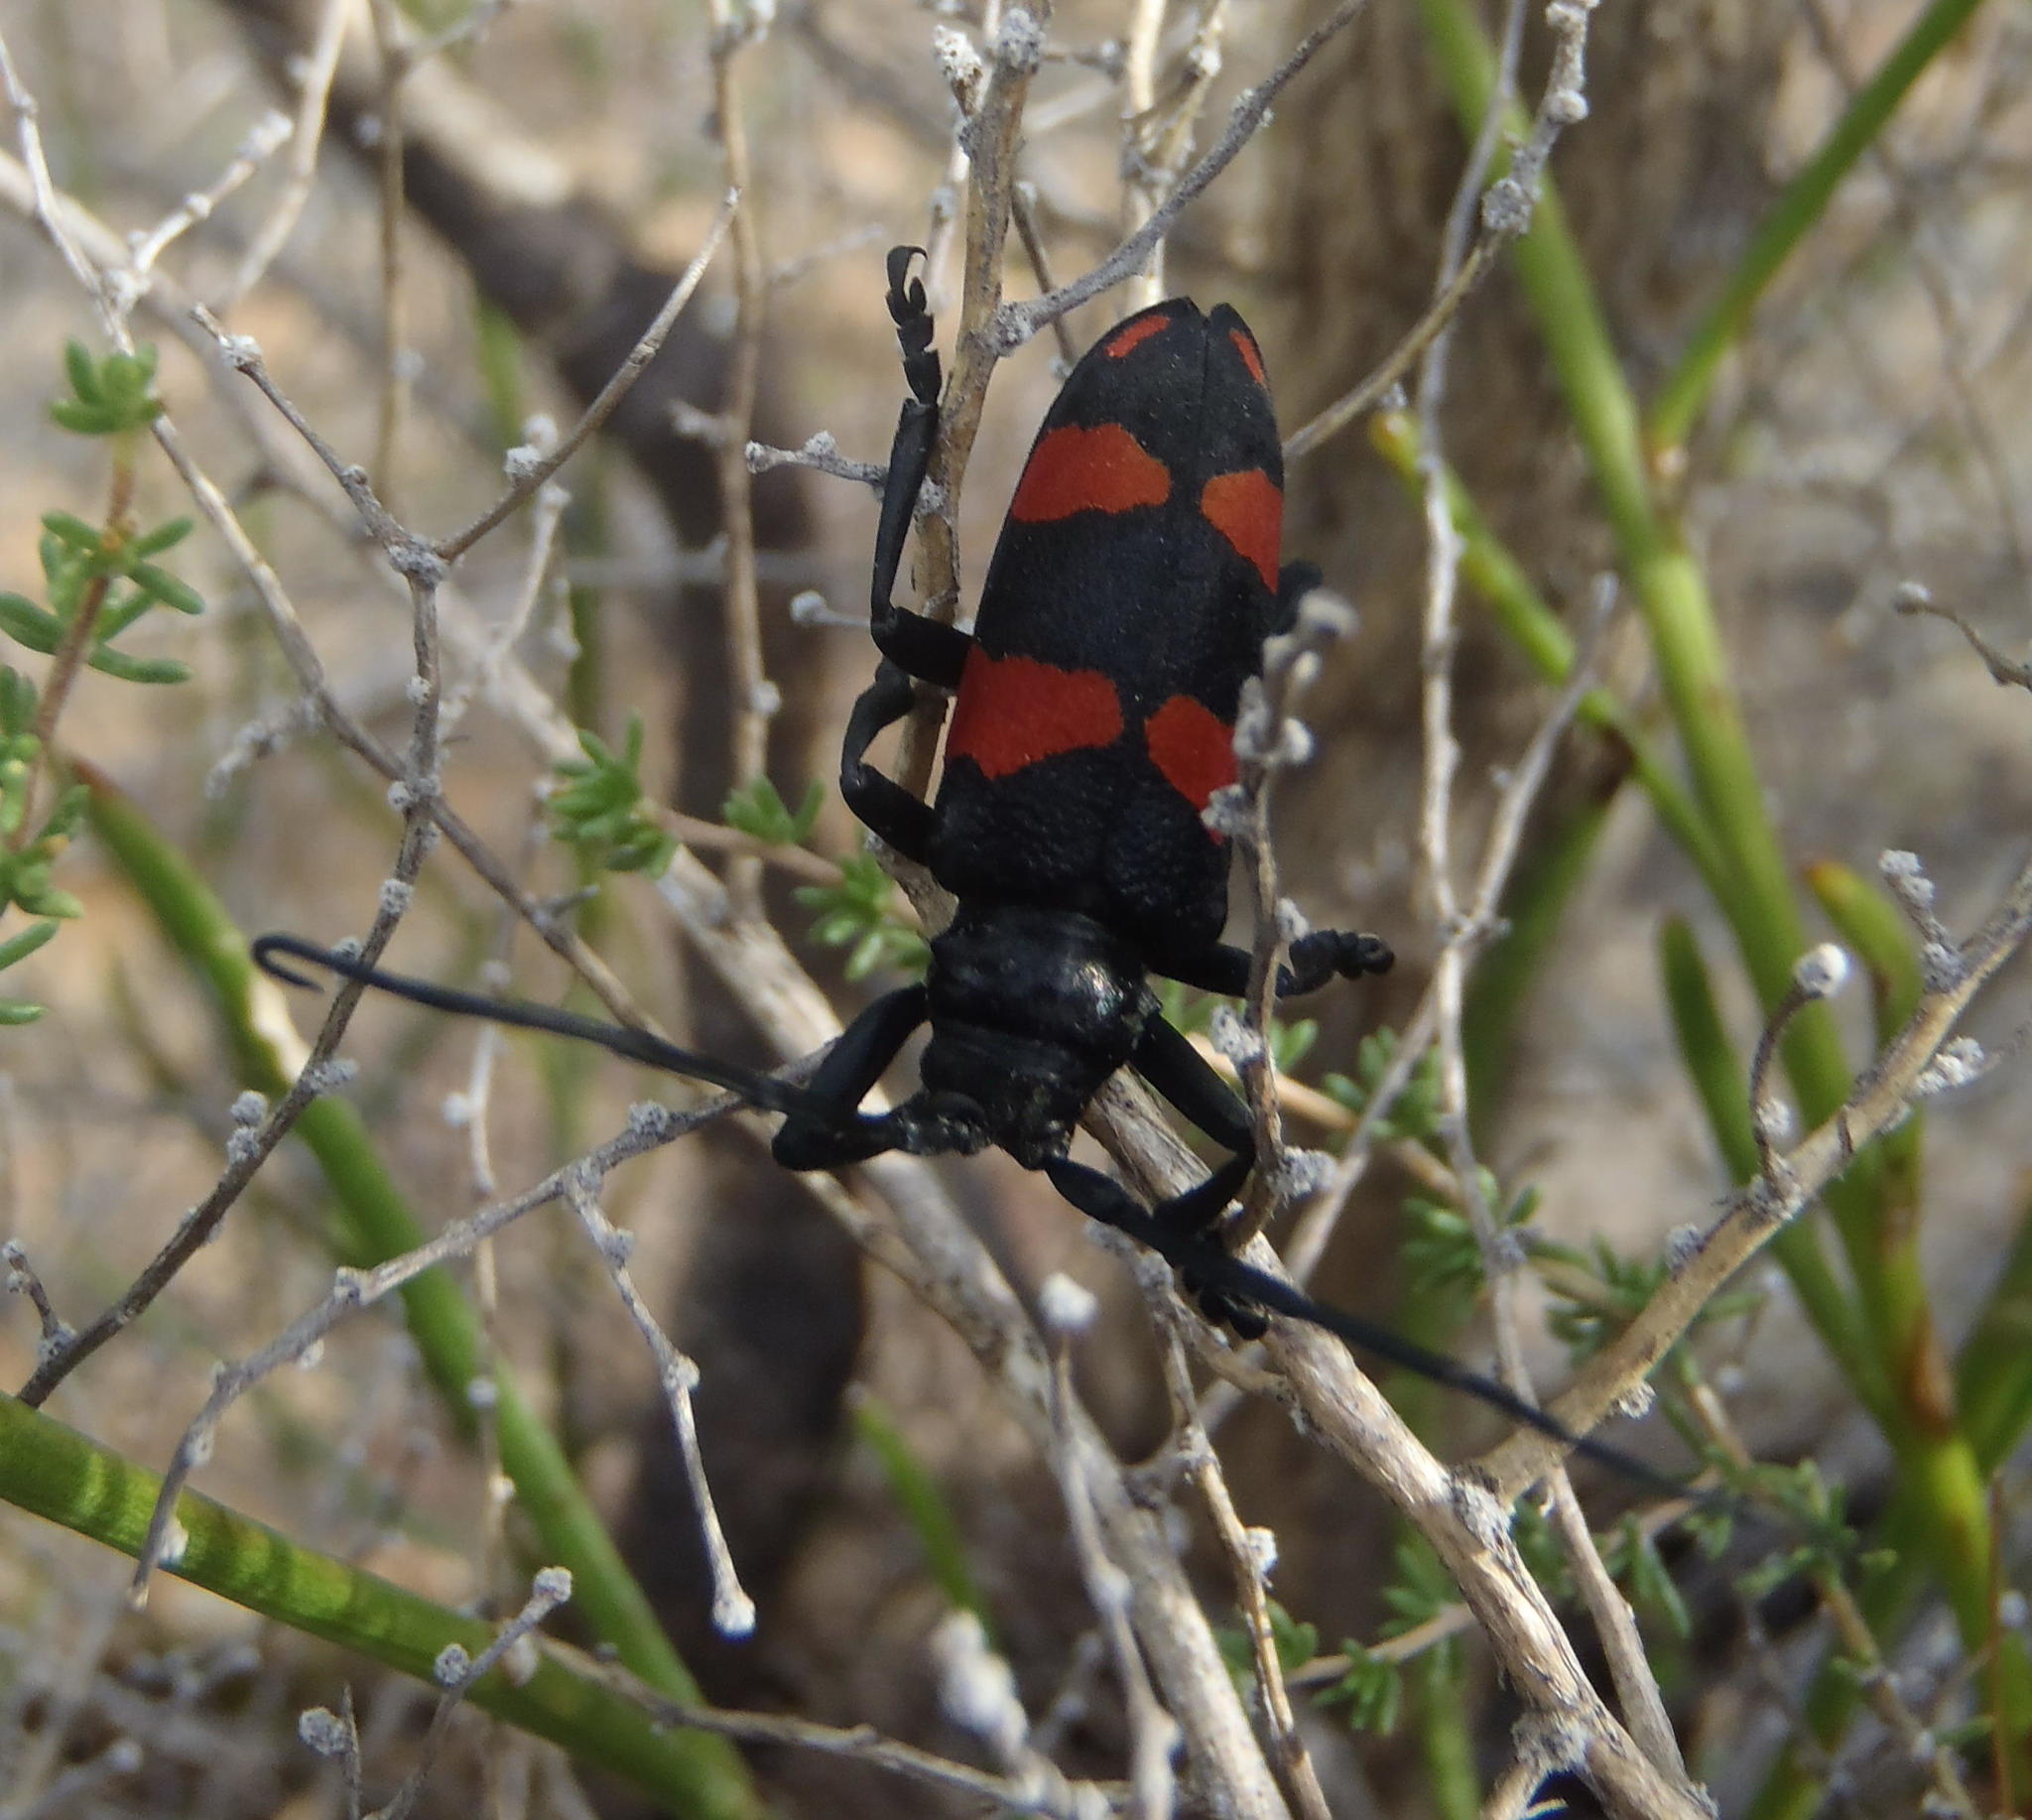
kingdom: Animalia
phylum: Arthropoda
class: Insecta
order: Coleoptera
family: Cerambycidae
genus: Ceroplesis
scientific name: Ceroplesis aethiops
